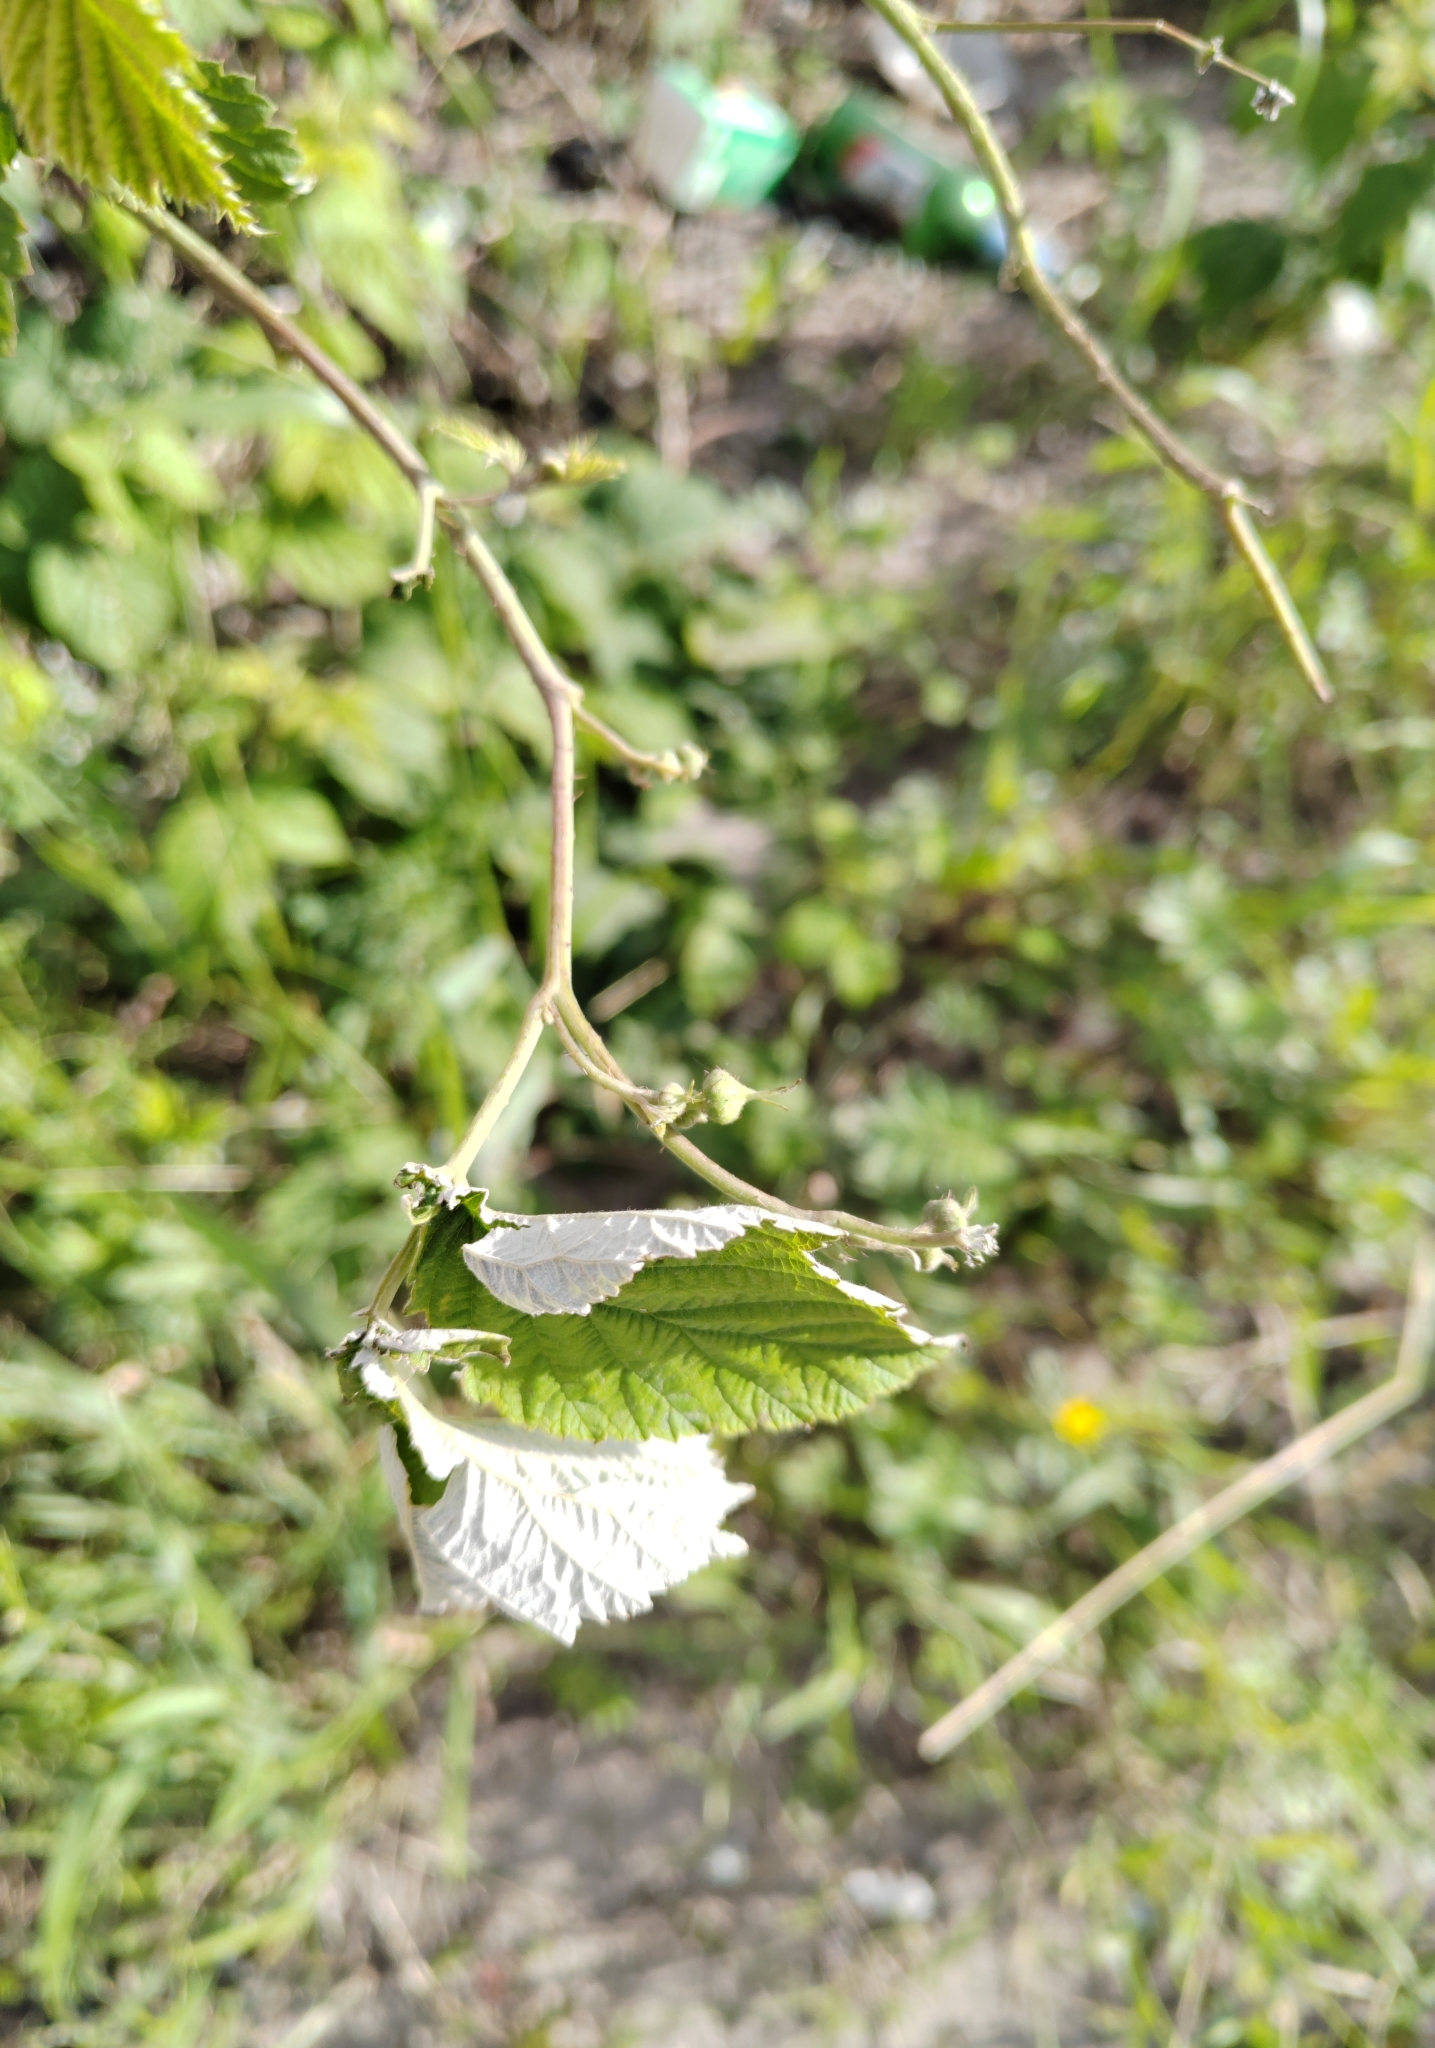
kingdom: Plantae
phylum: Tracheophyta
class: Magnoliopsida
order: Rosales
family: Rosaceae
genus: Rubus
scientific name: Rubus idaeus
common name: Raspberry
